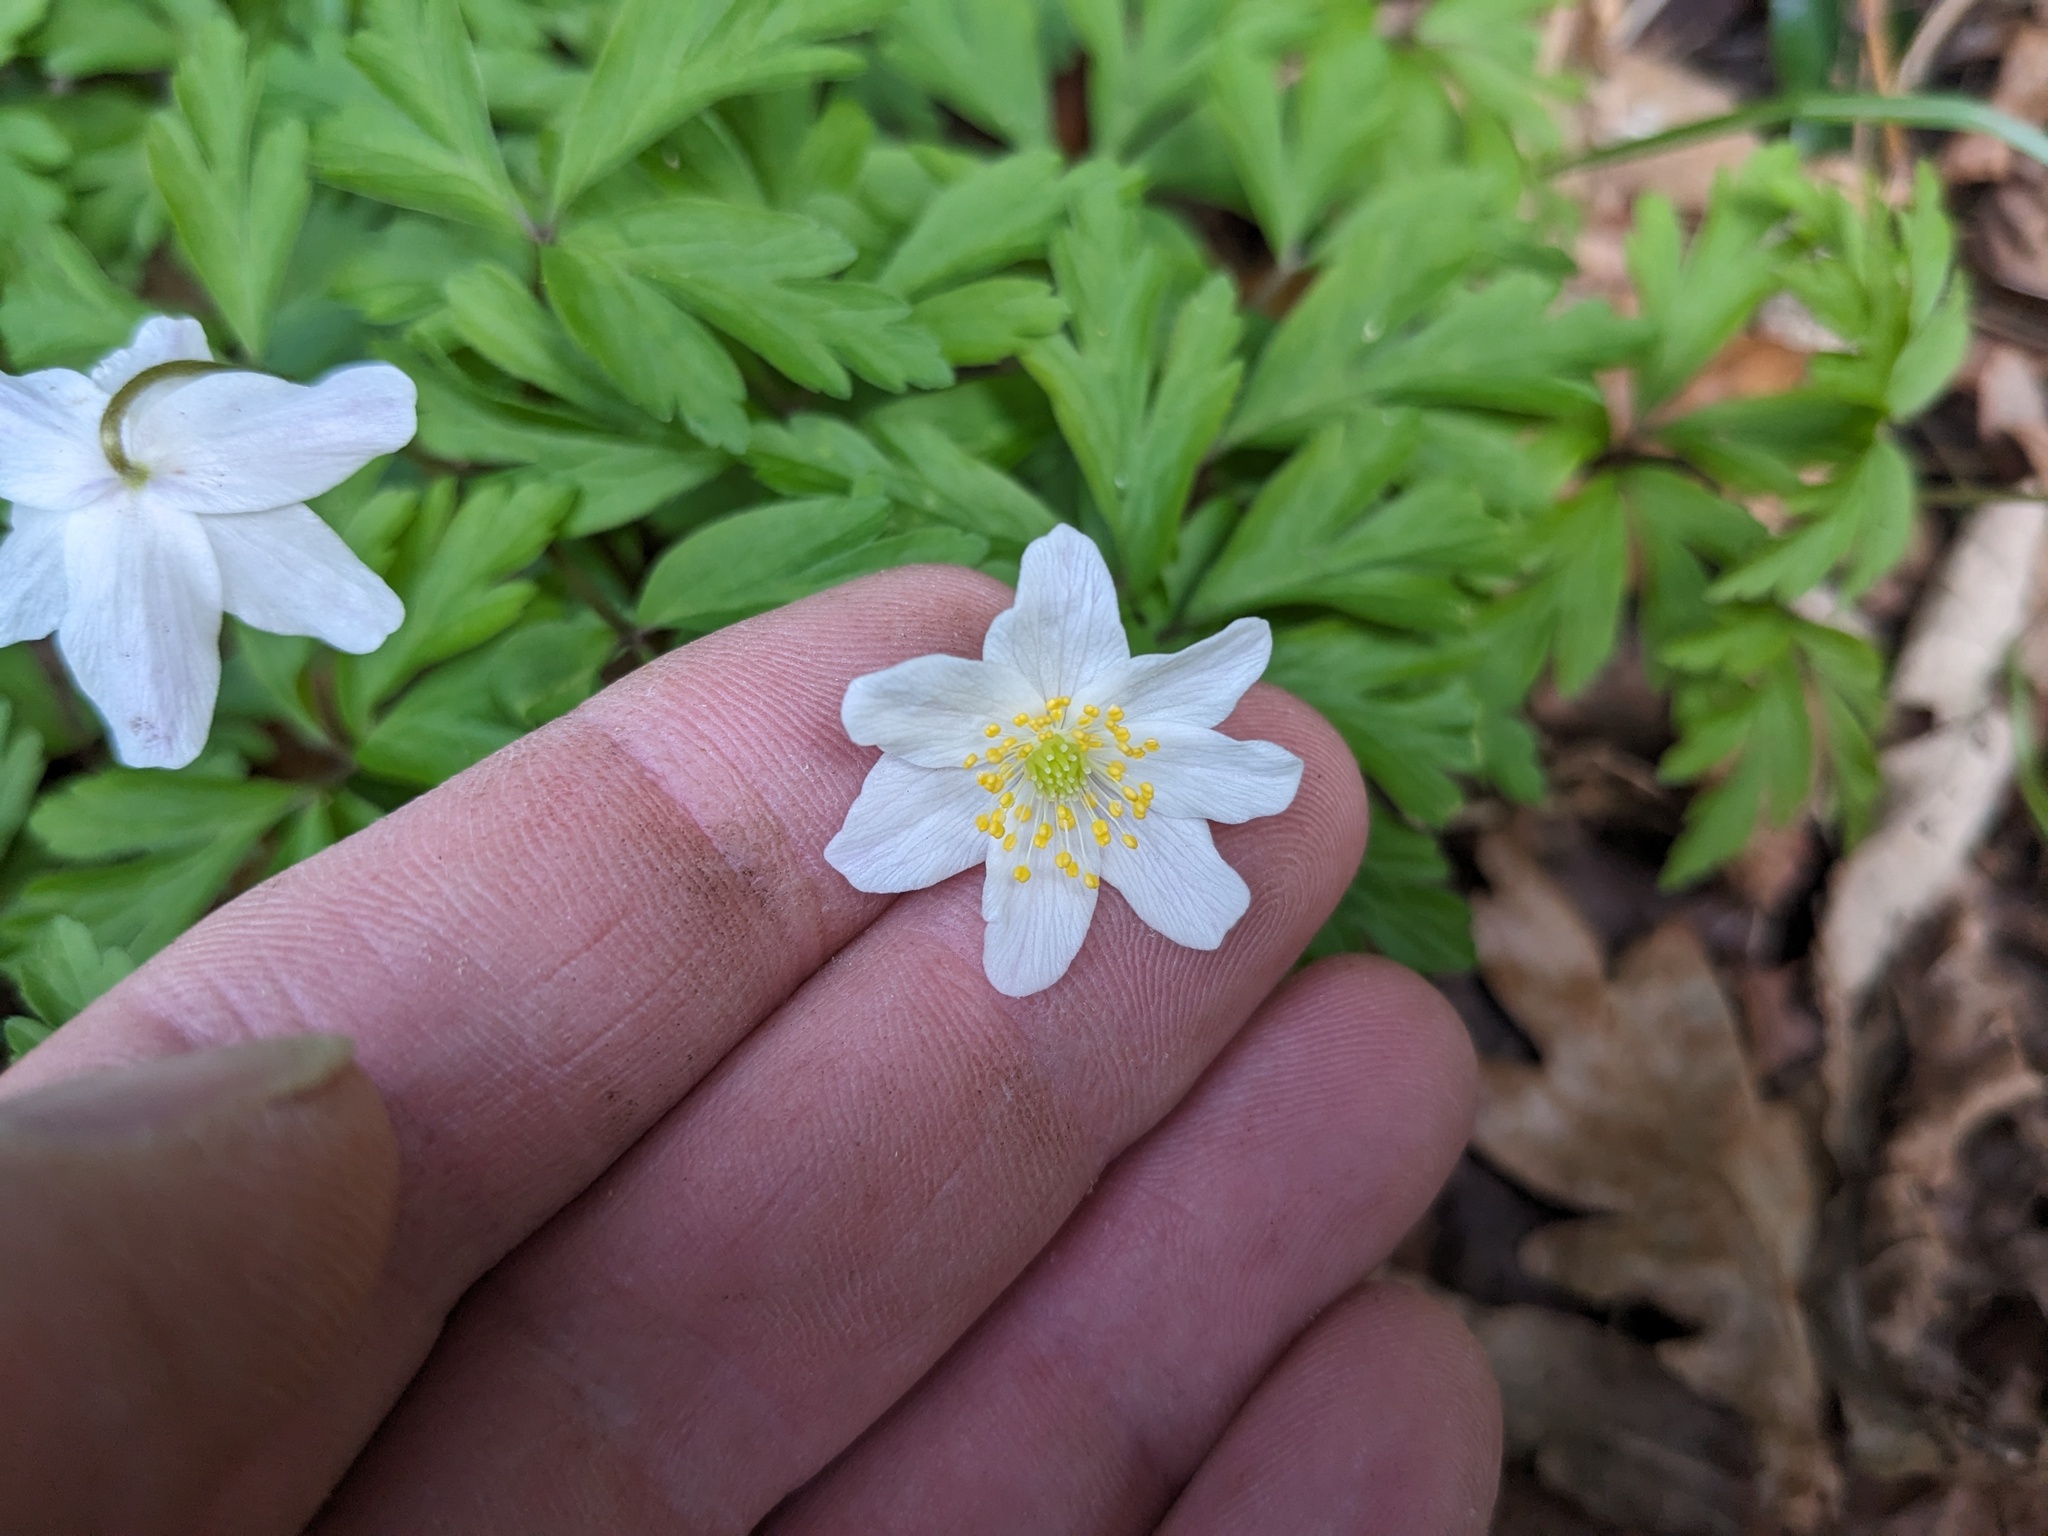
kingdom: Plantae
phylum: Tracheophyta
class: Magnoliopsida
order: Ranunculales
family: Ranunculaceae
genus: Anemone
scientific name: Anemone nemorosa
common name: Wood anemone
